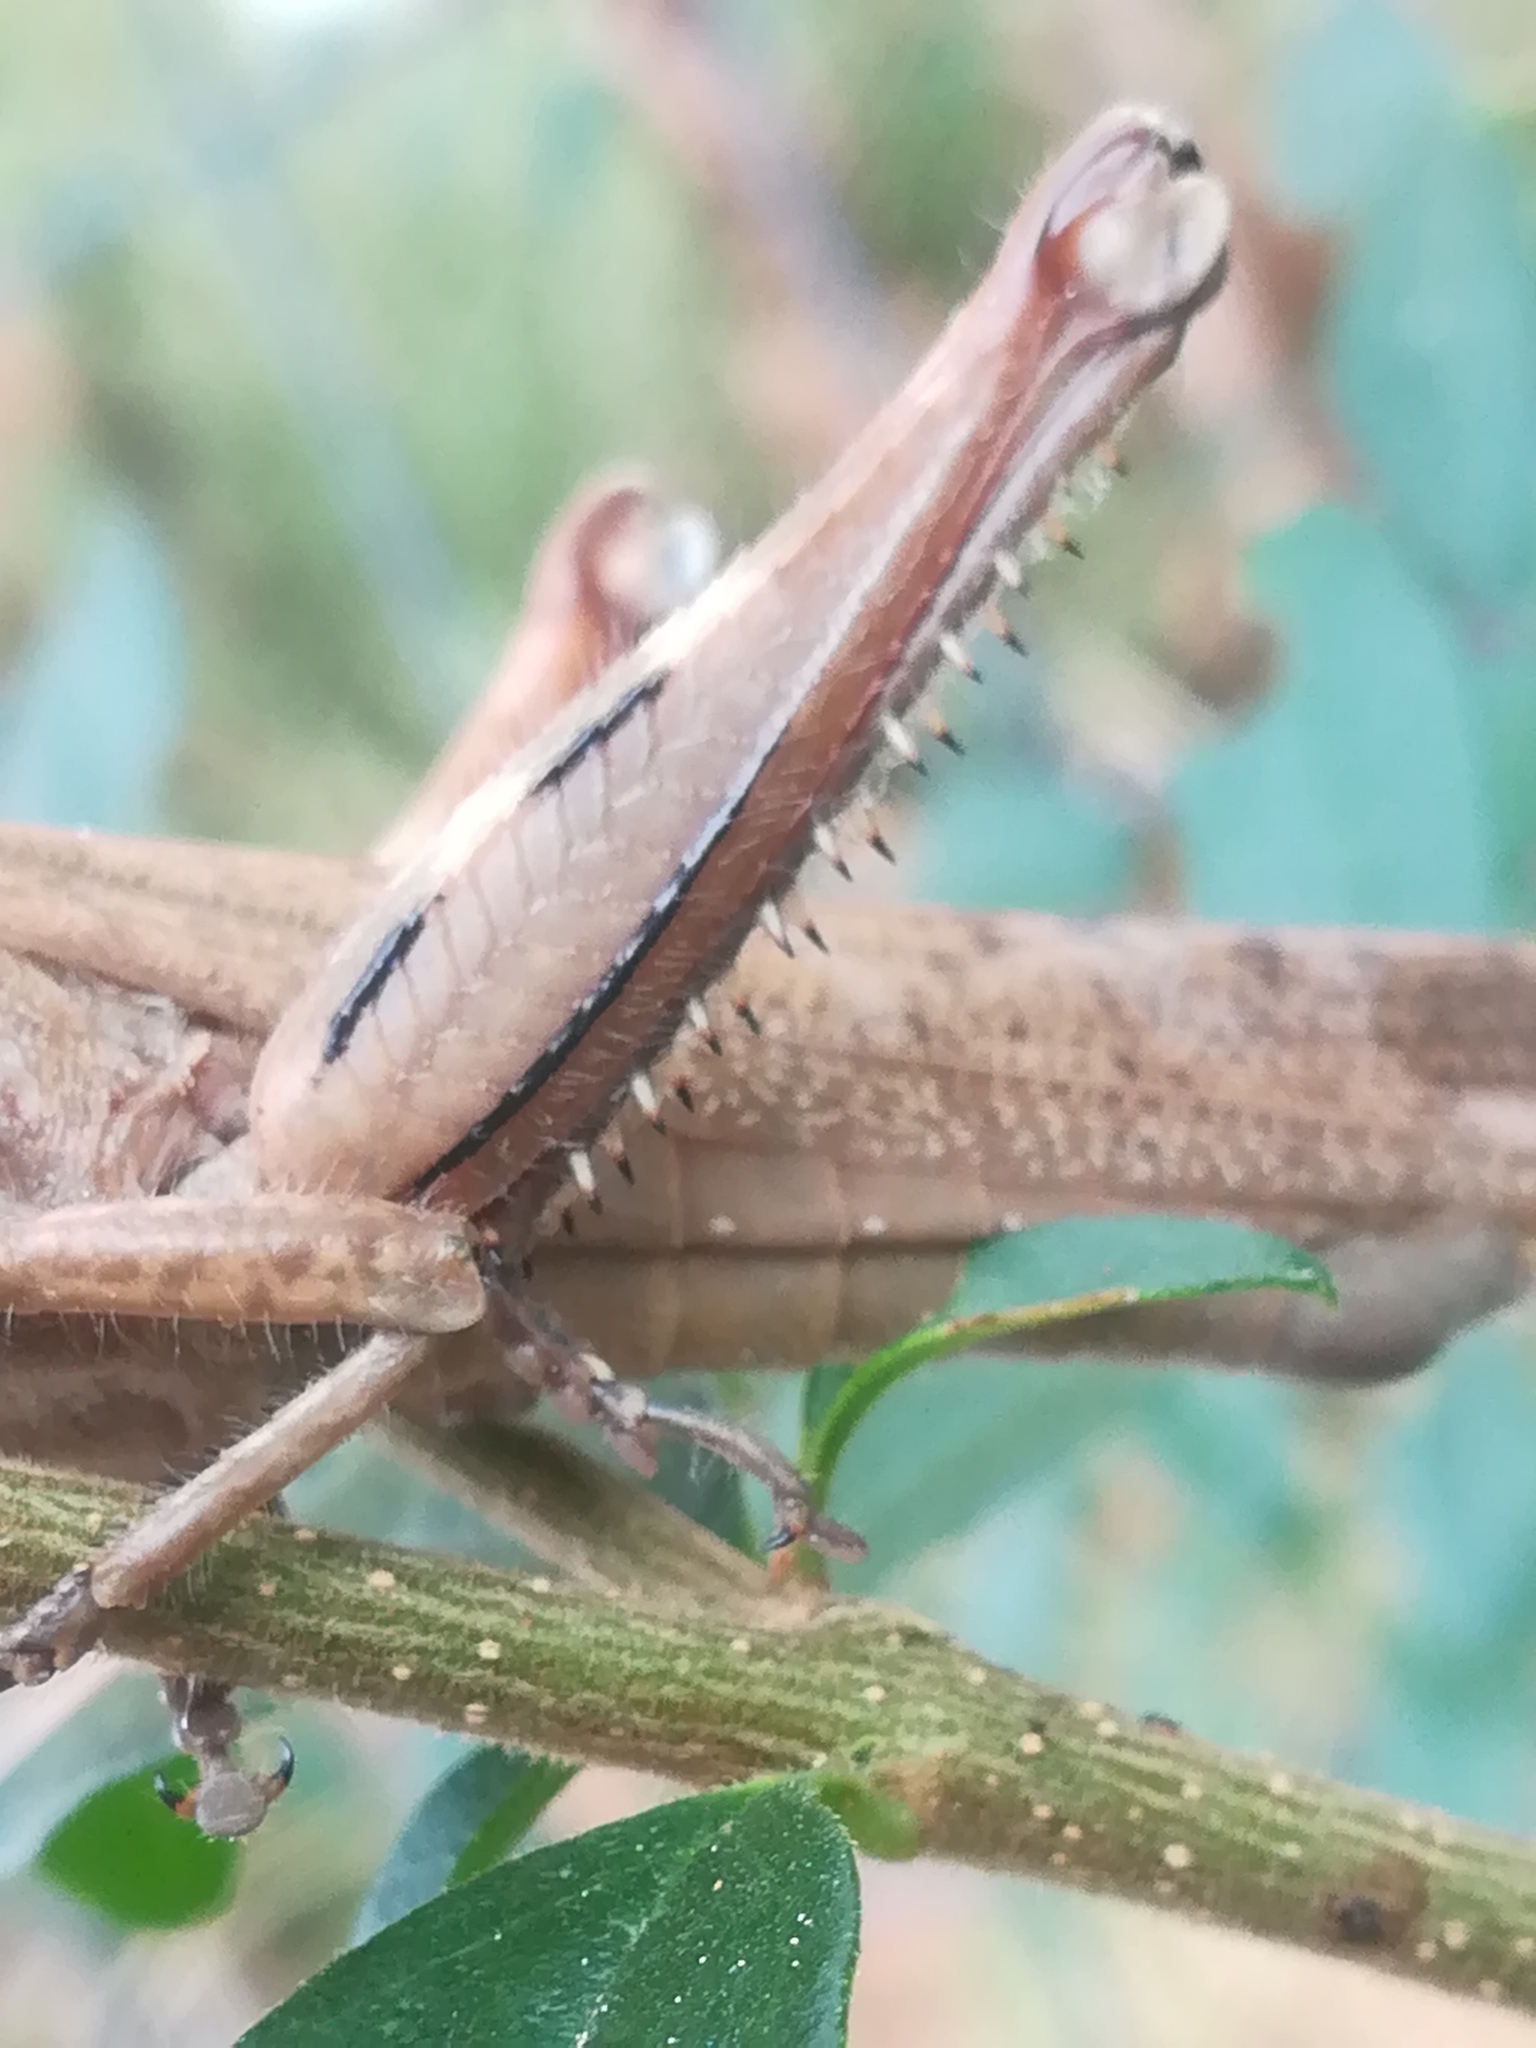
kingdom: Animalia
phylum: Arthropoda
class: Insecta
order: Orthoptera
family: Acrididae
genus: Anacridium
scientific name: Anacridium aegyptium
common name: Egyptian grasshopper
